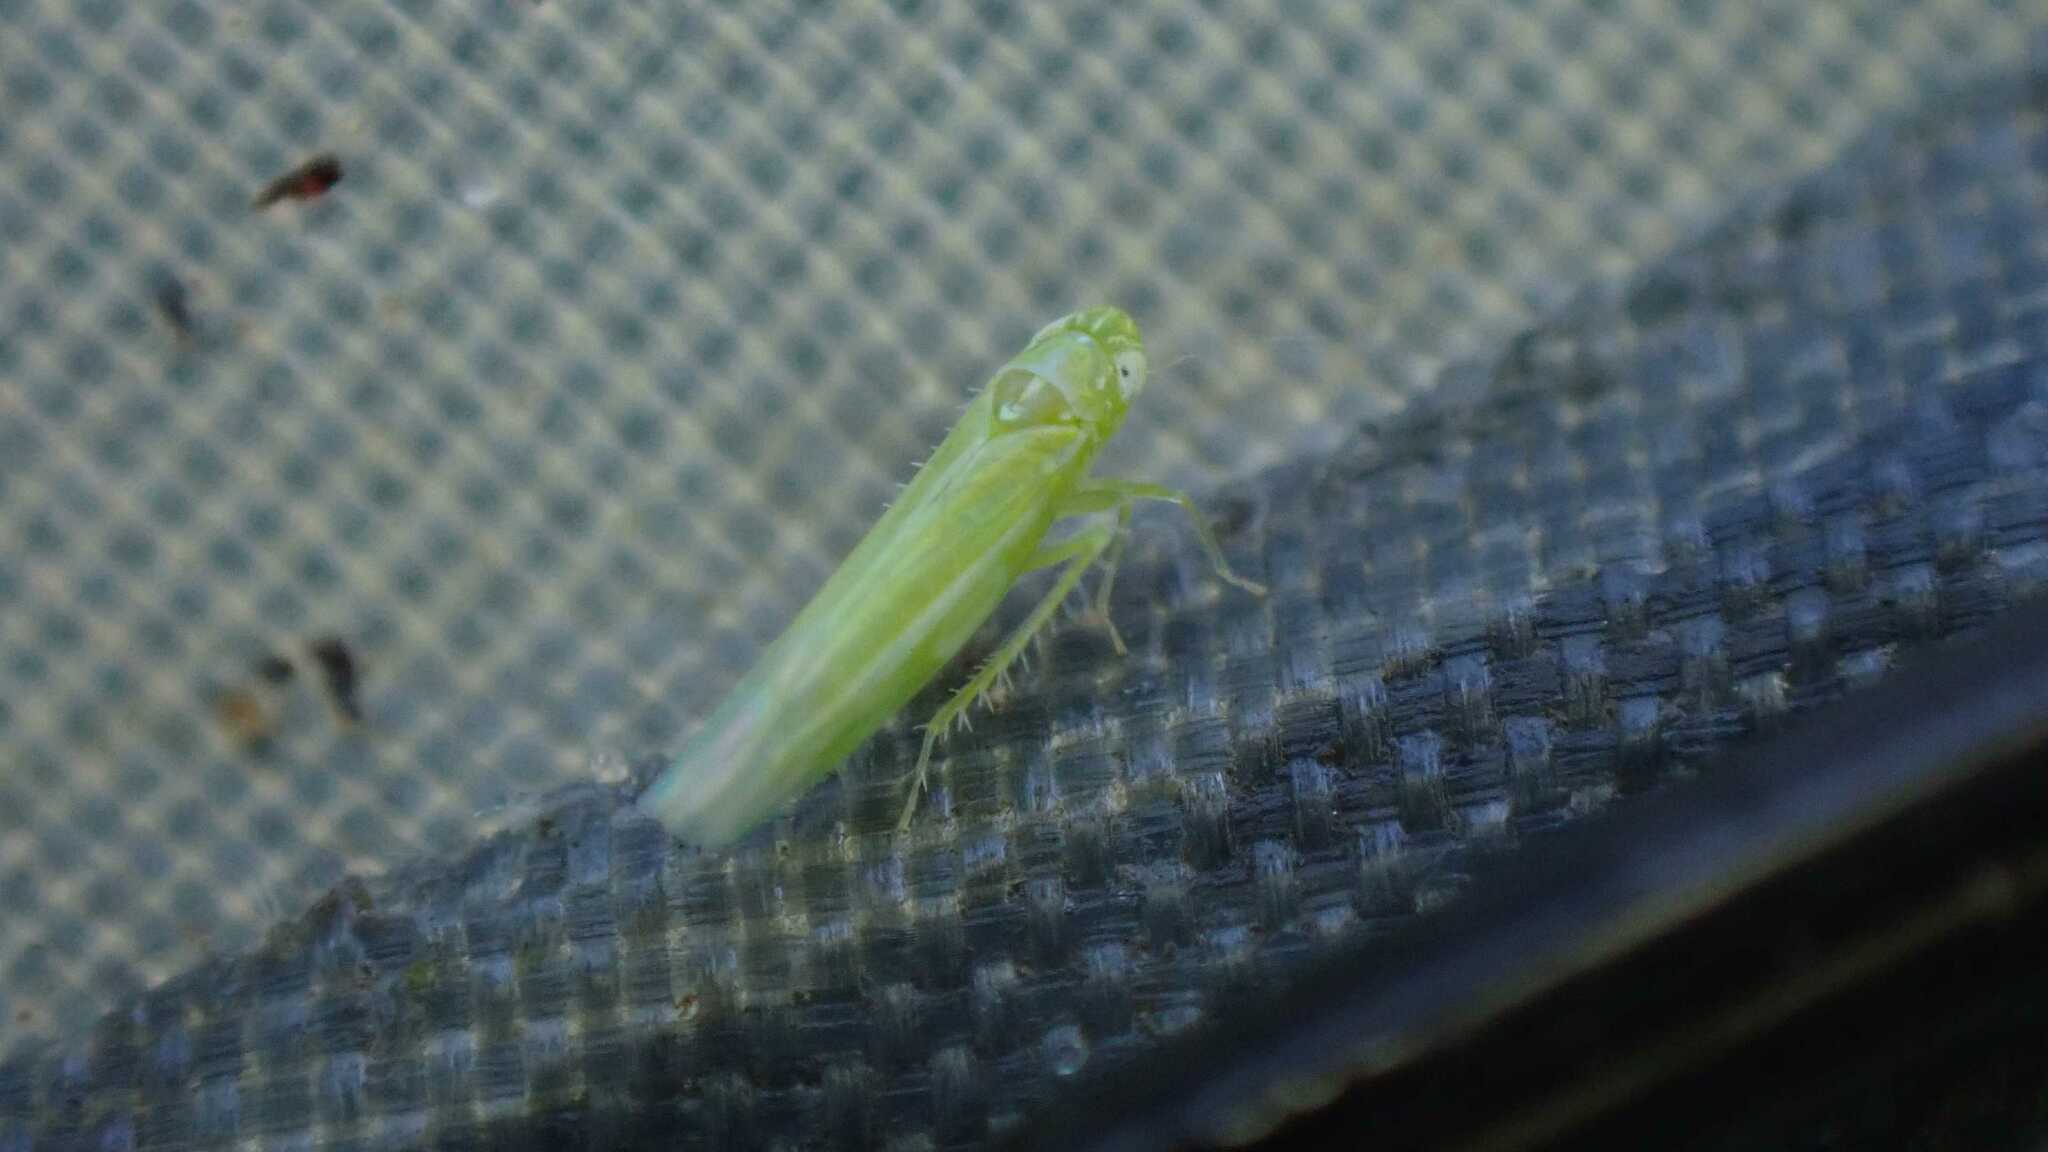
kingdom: Animalia
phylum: Arthropoda
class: Insecta
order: Hemiptera
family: Cicadellidae
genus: Hebata
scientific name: Hebata vitis
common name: The smaller green leafhopper
